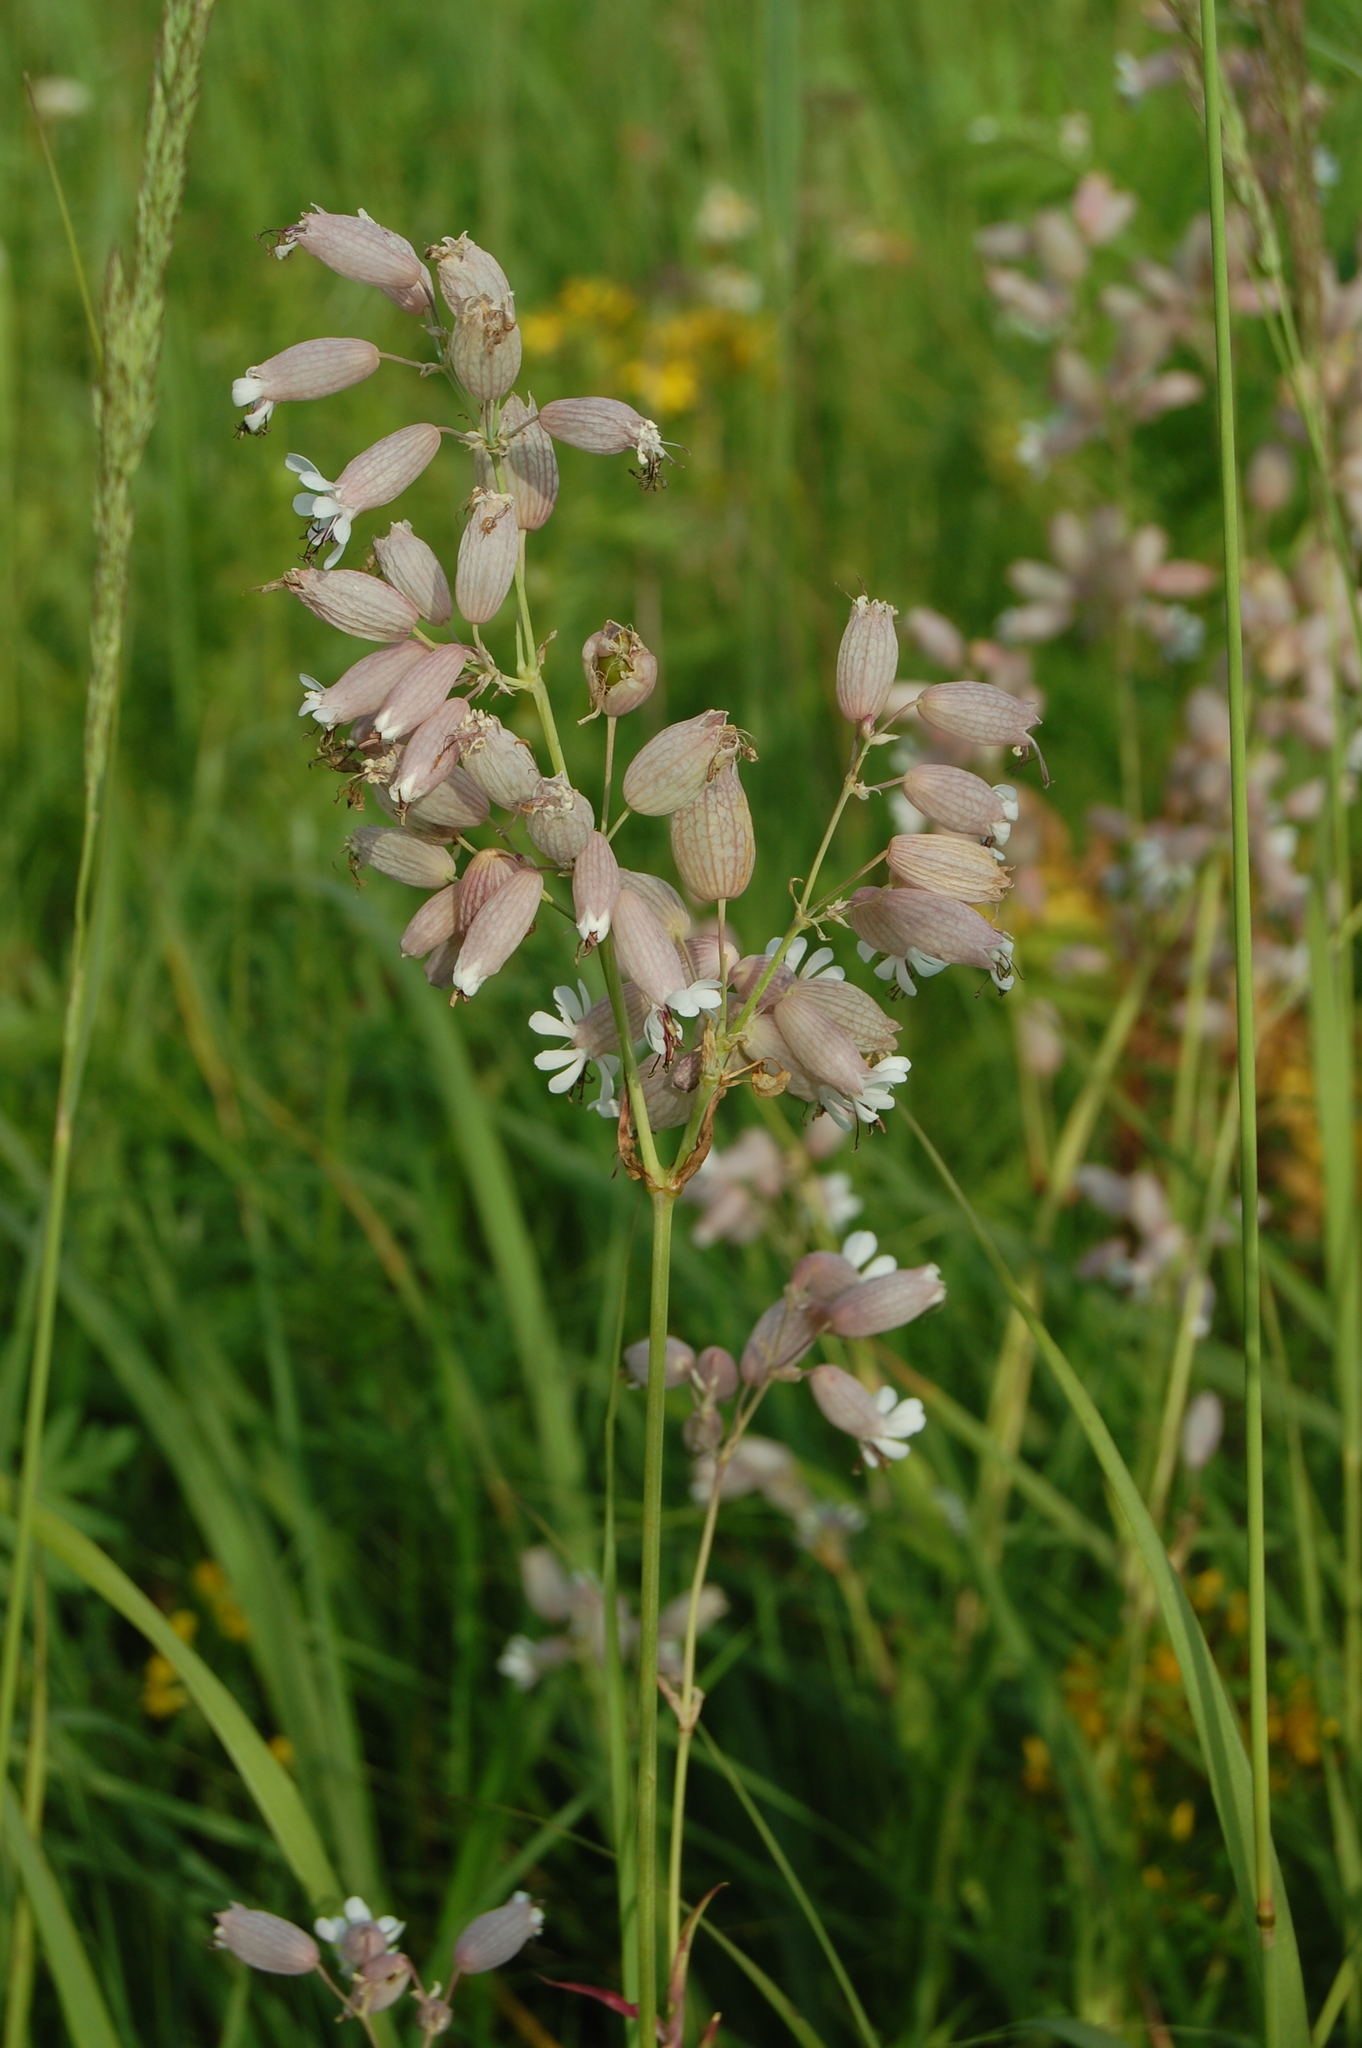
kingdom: Plantae
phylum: Tracheophyta
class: Magnoliopsida
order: Caryophyllales
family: Caryophyllaceae
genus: Silene
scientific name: Silene vulgaris
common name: Bladder campion
